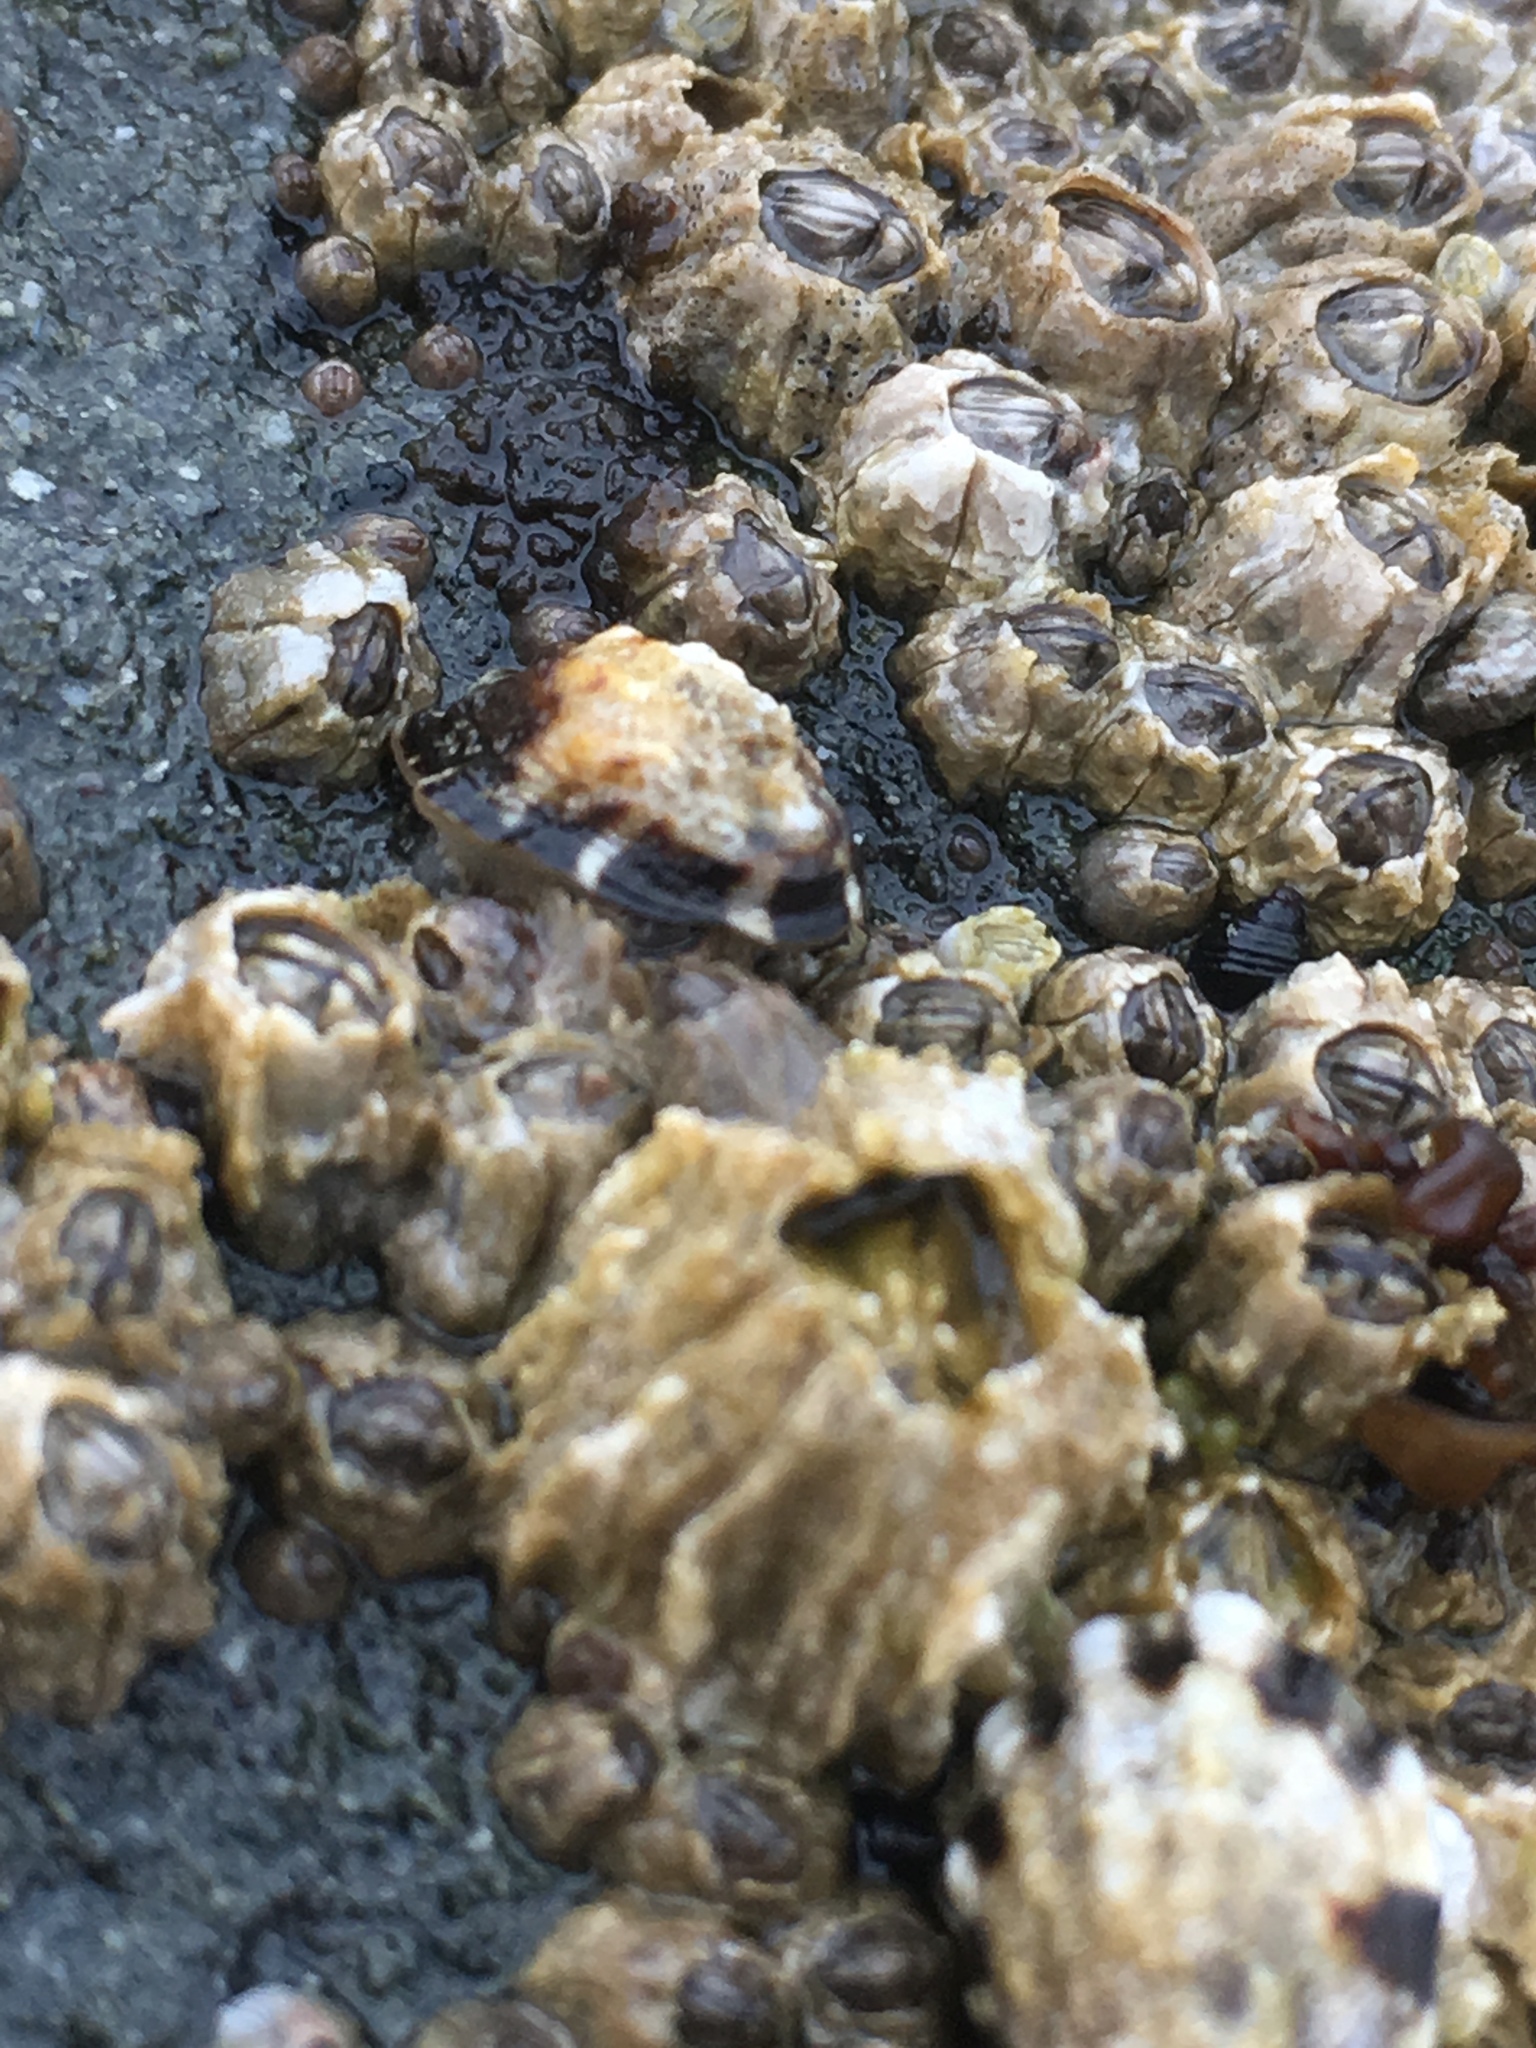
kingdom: Animalia
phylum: Arthropoda
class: Maxillopoda
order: Sessilia
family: Balanidae
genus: Balanus
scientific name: Balanus glandula
